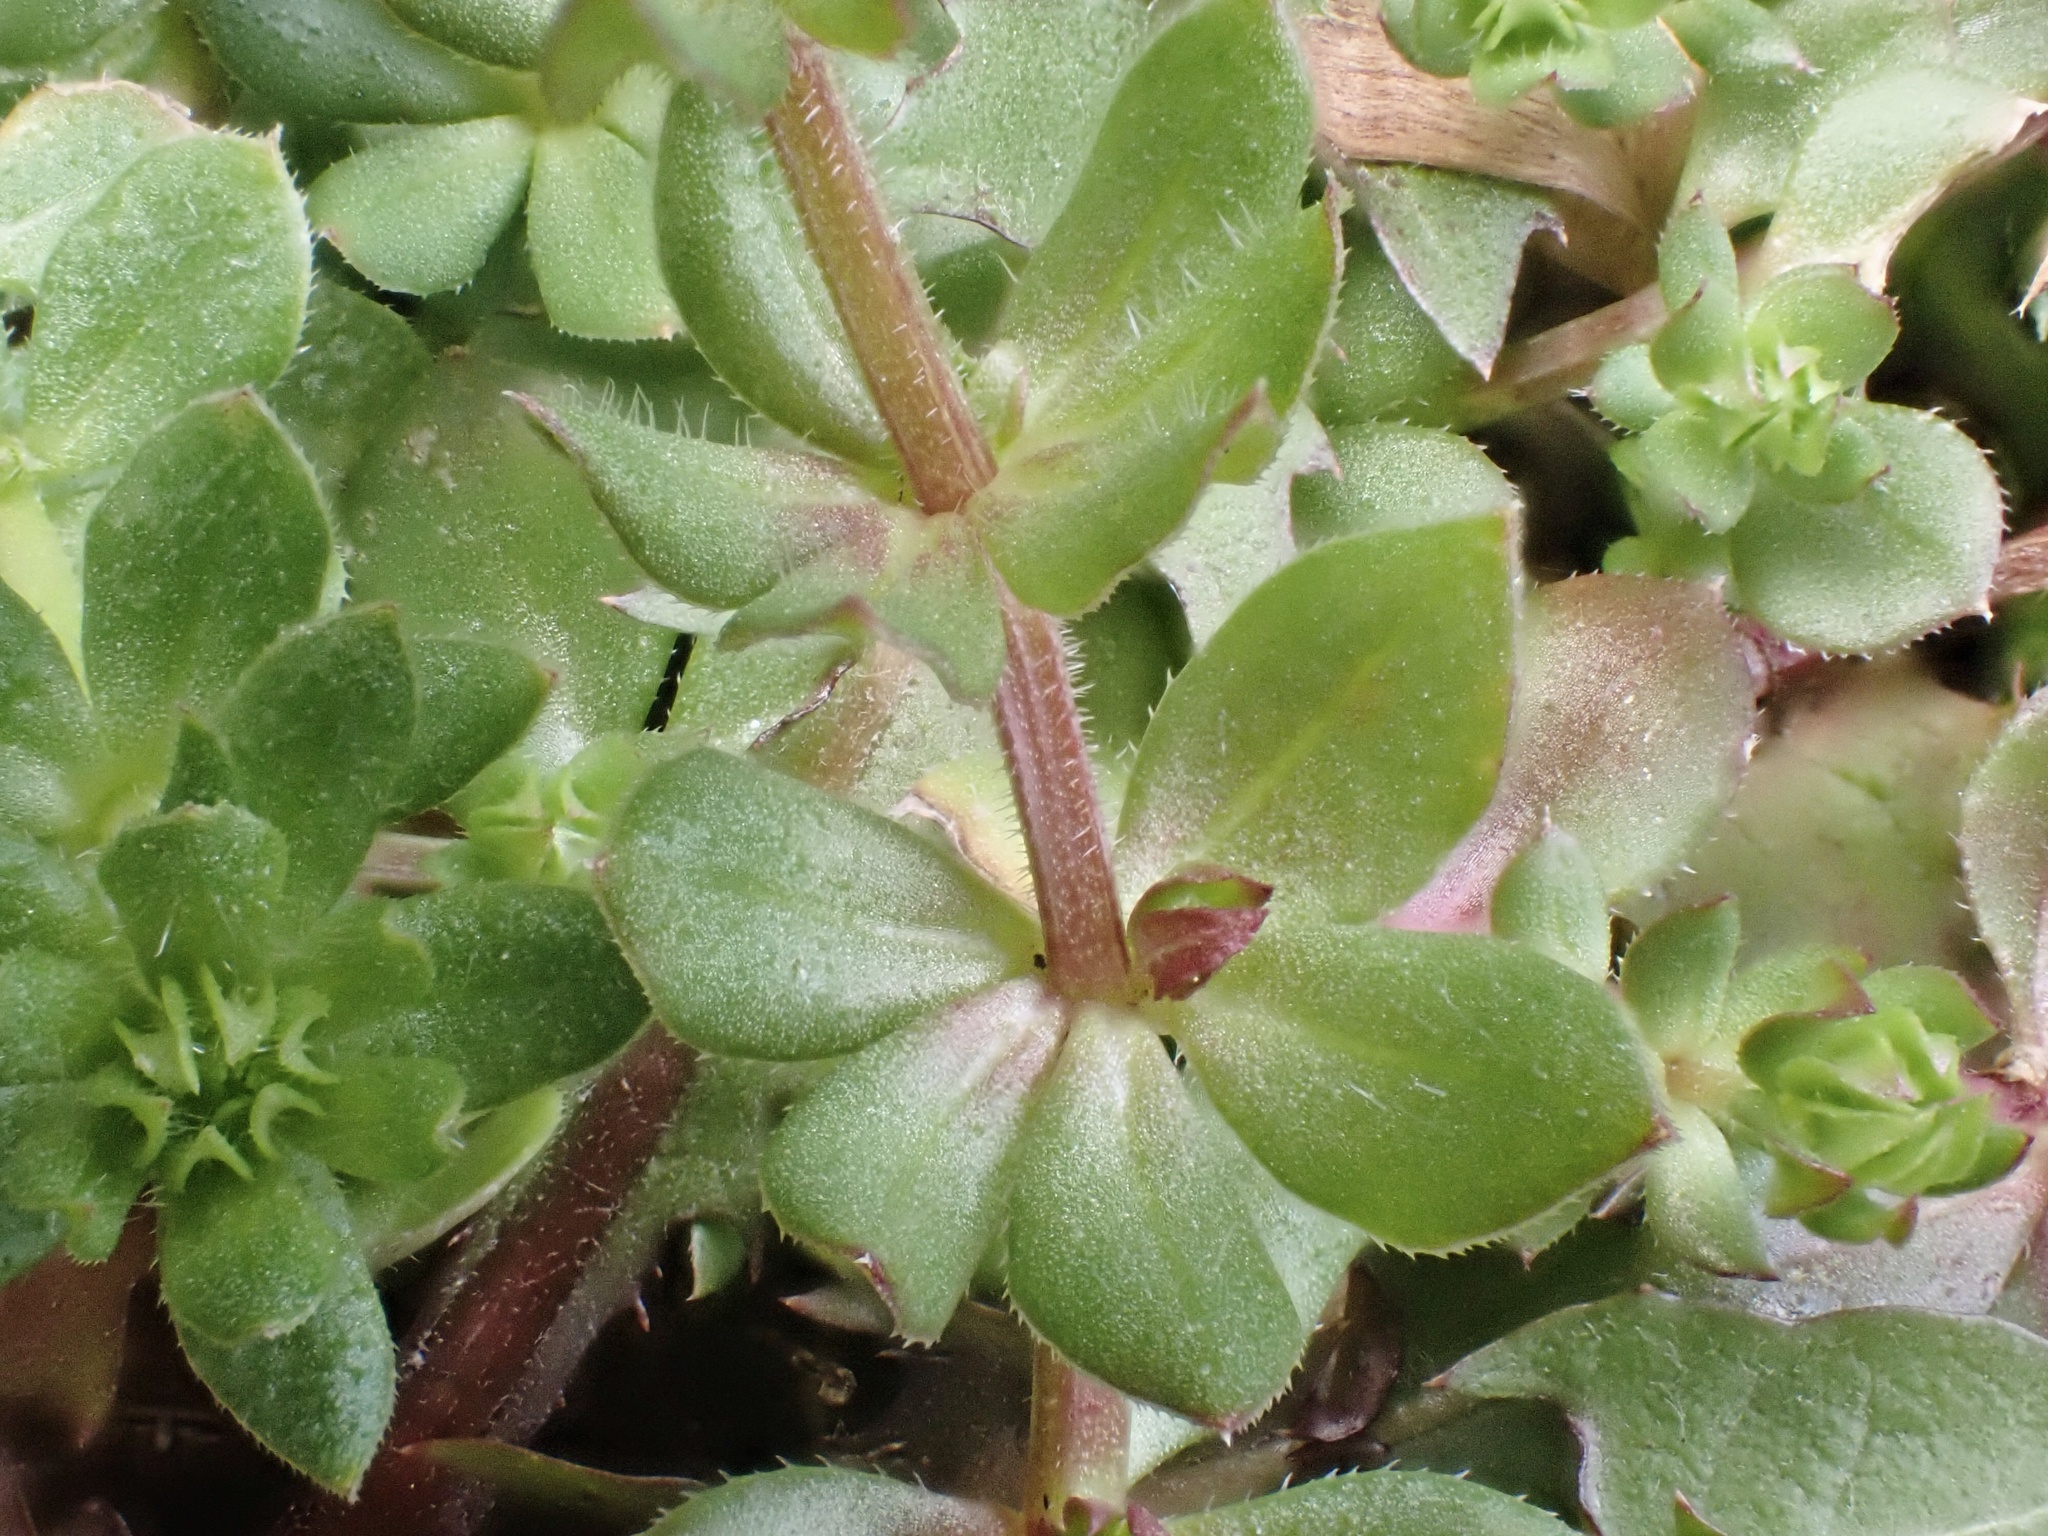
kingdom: Plantae
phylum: Tracheophyta
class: Magnoliopsida
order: Gentianales
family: Rubiaceae
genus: Sherardia
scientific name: Sherardia arvensis
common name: Field madder
